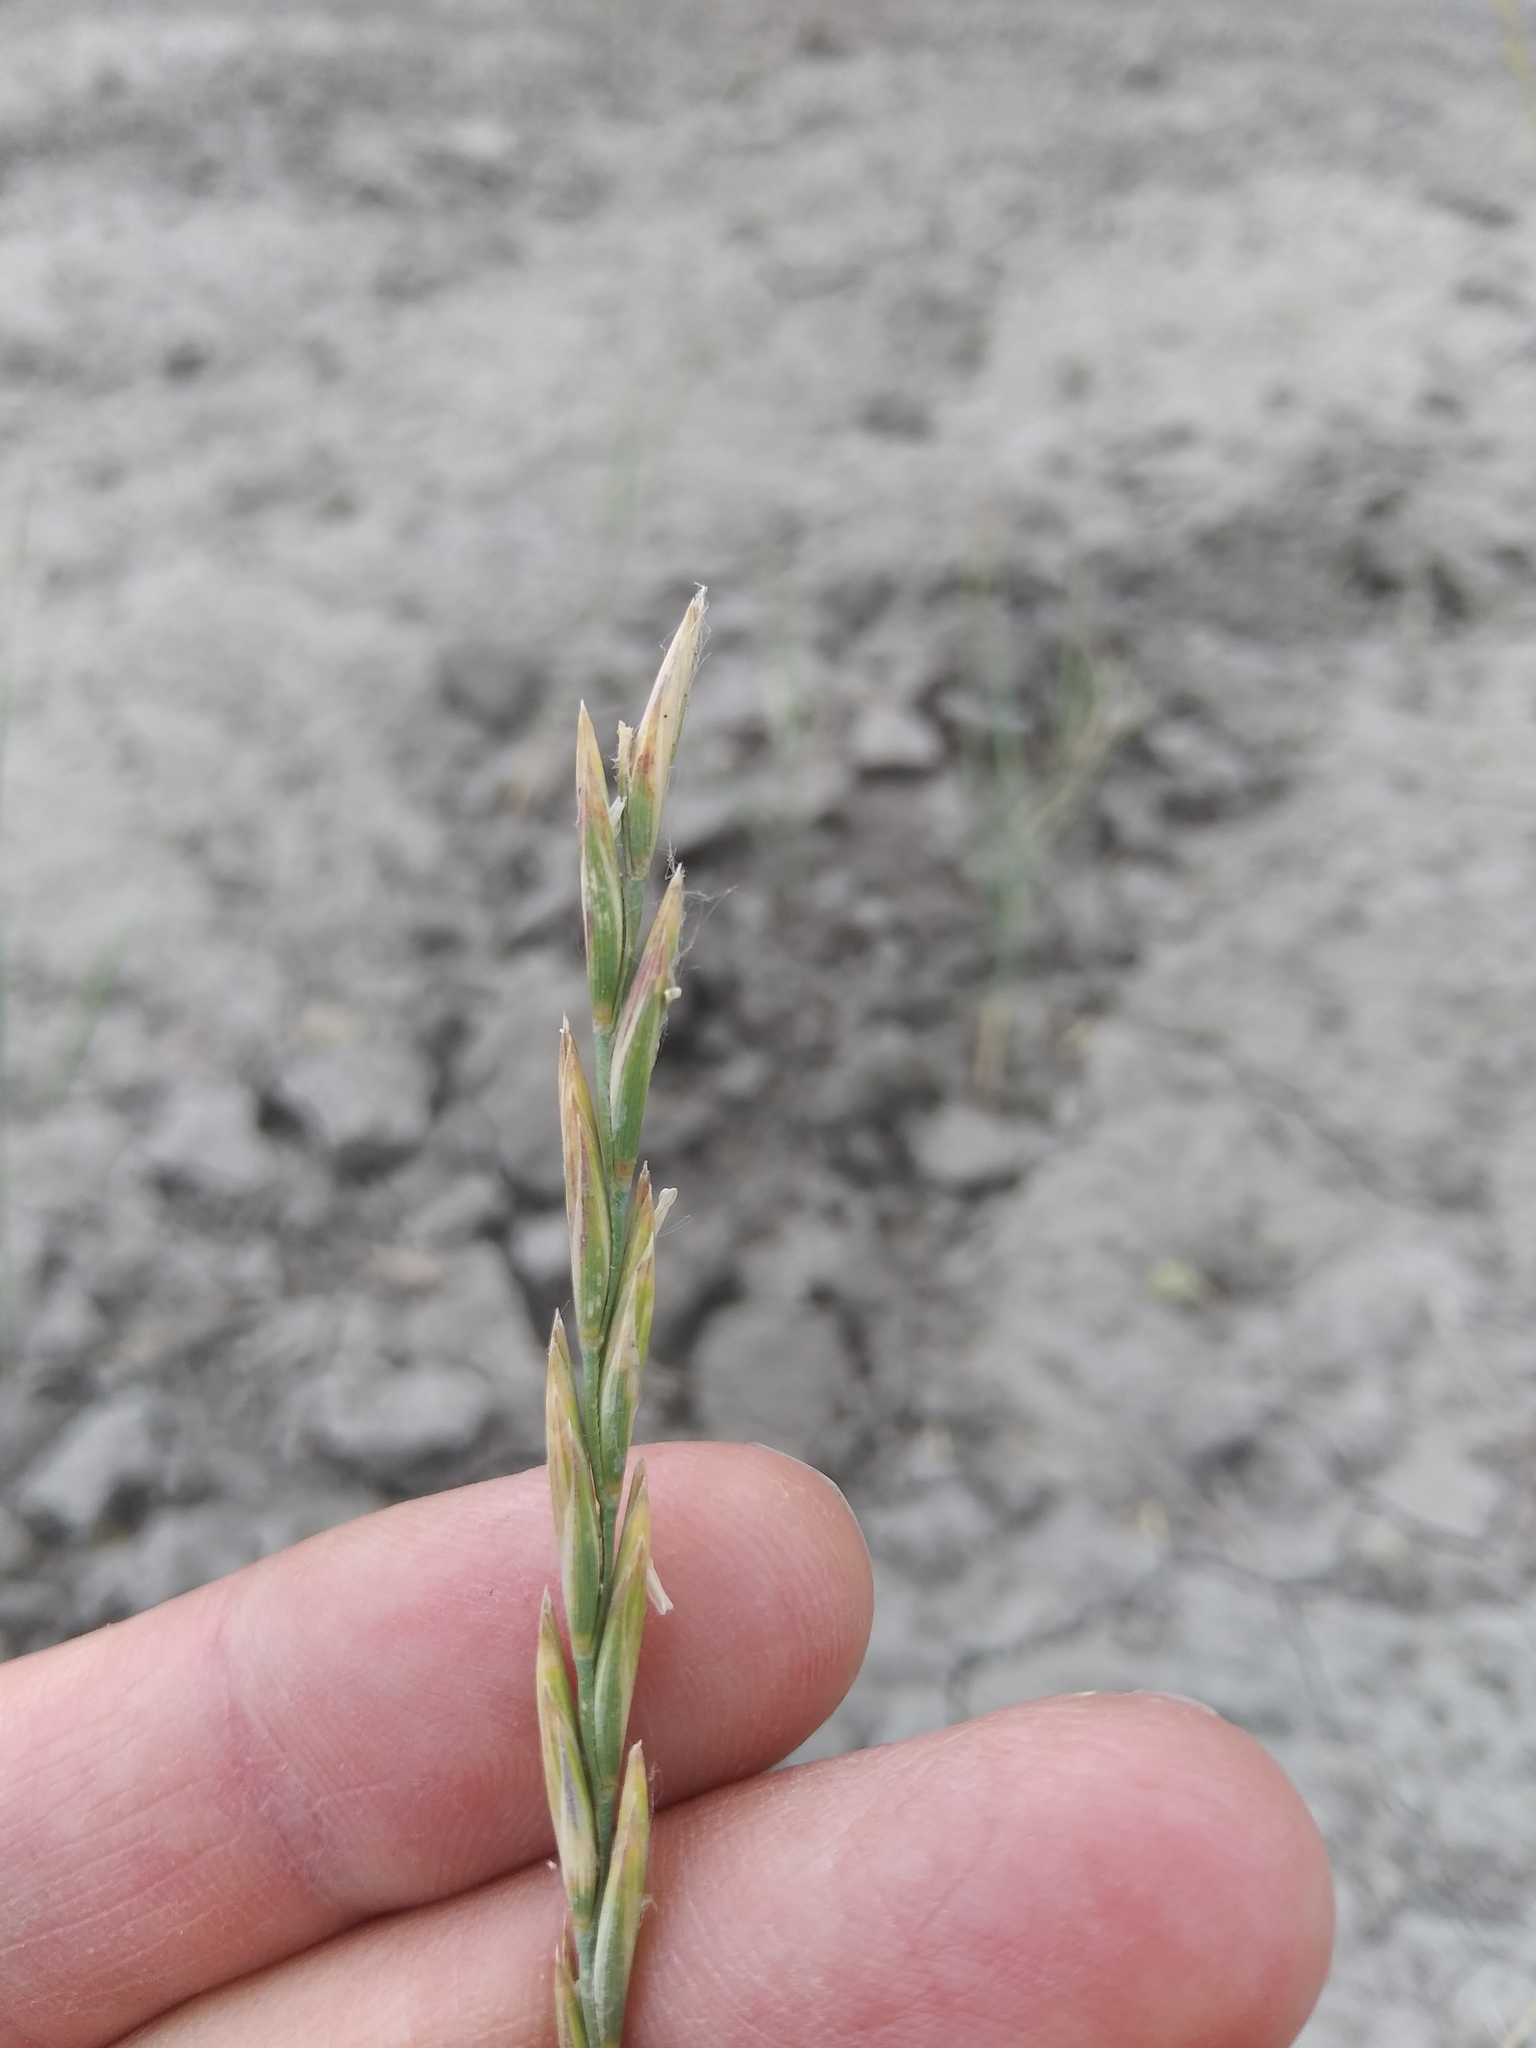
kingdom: Plantae
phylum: Tracheophyta
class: Liliopsida
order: Poales
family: Poaceae
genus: Elymus
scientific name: Elymus smithii
